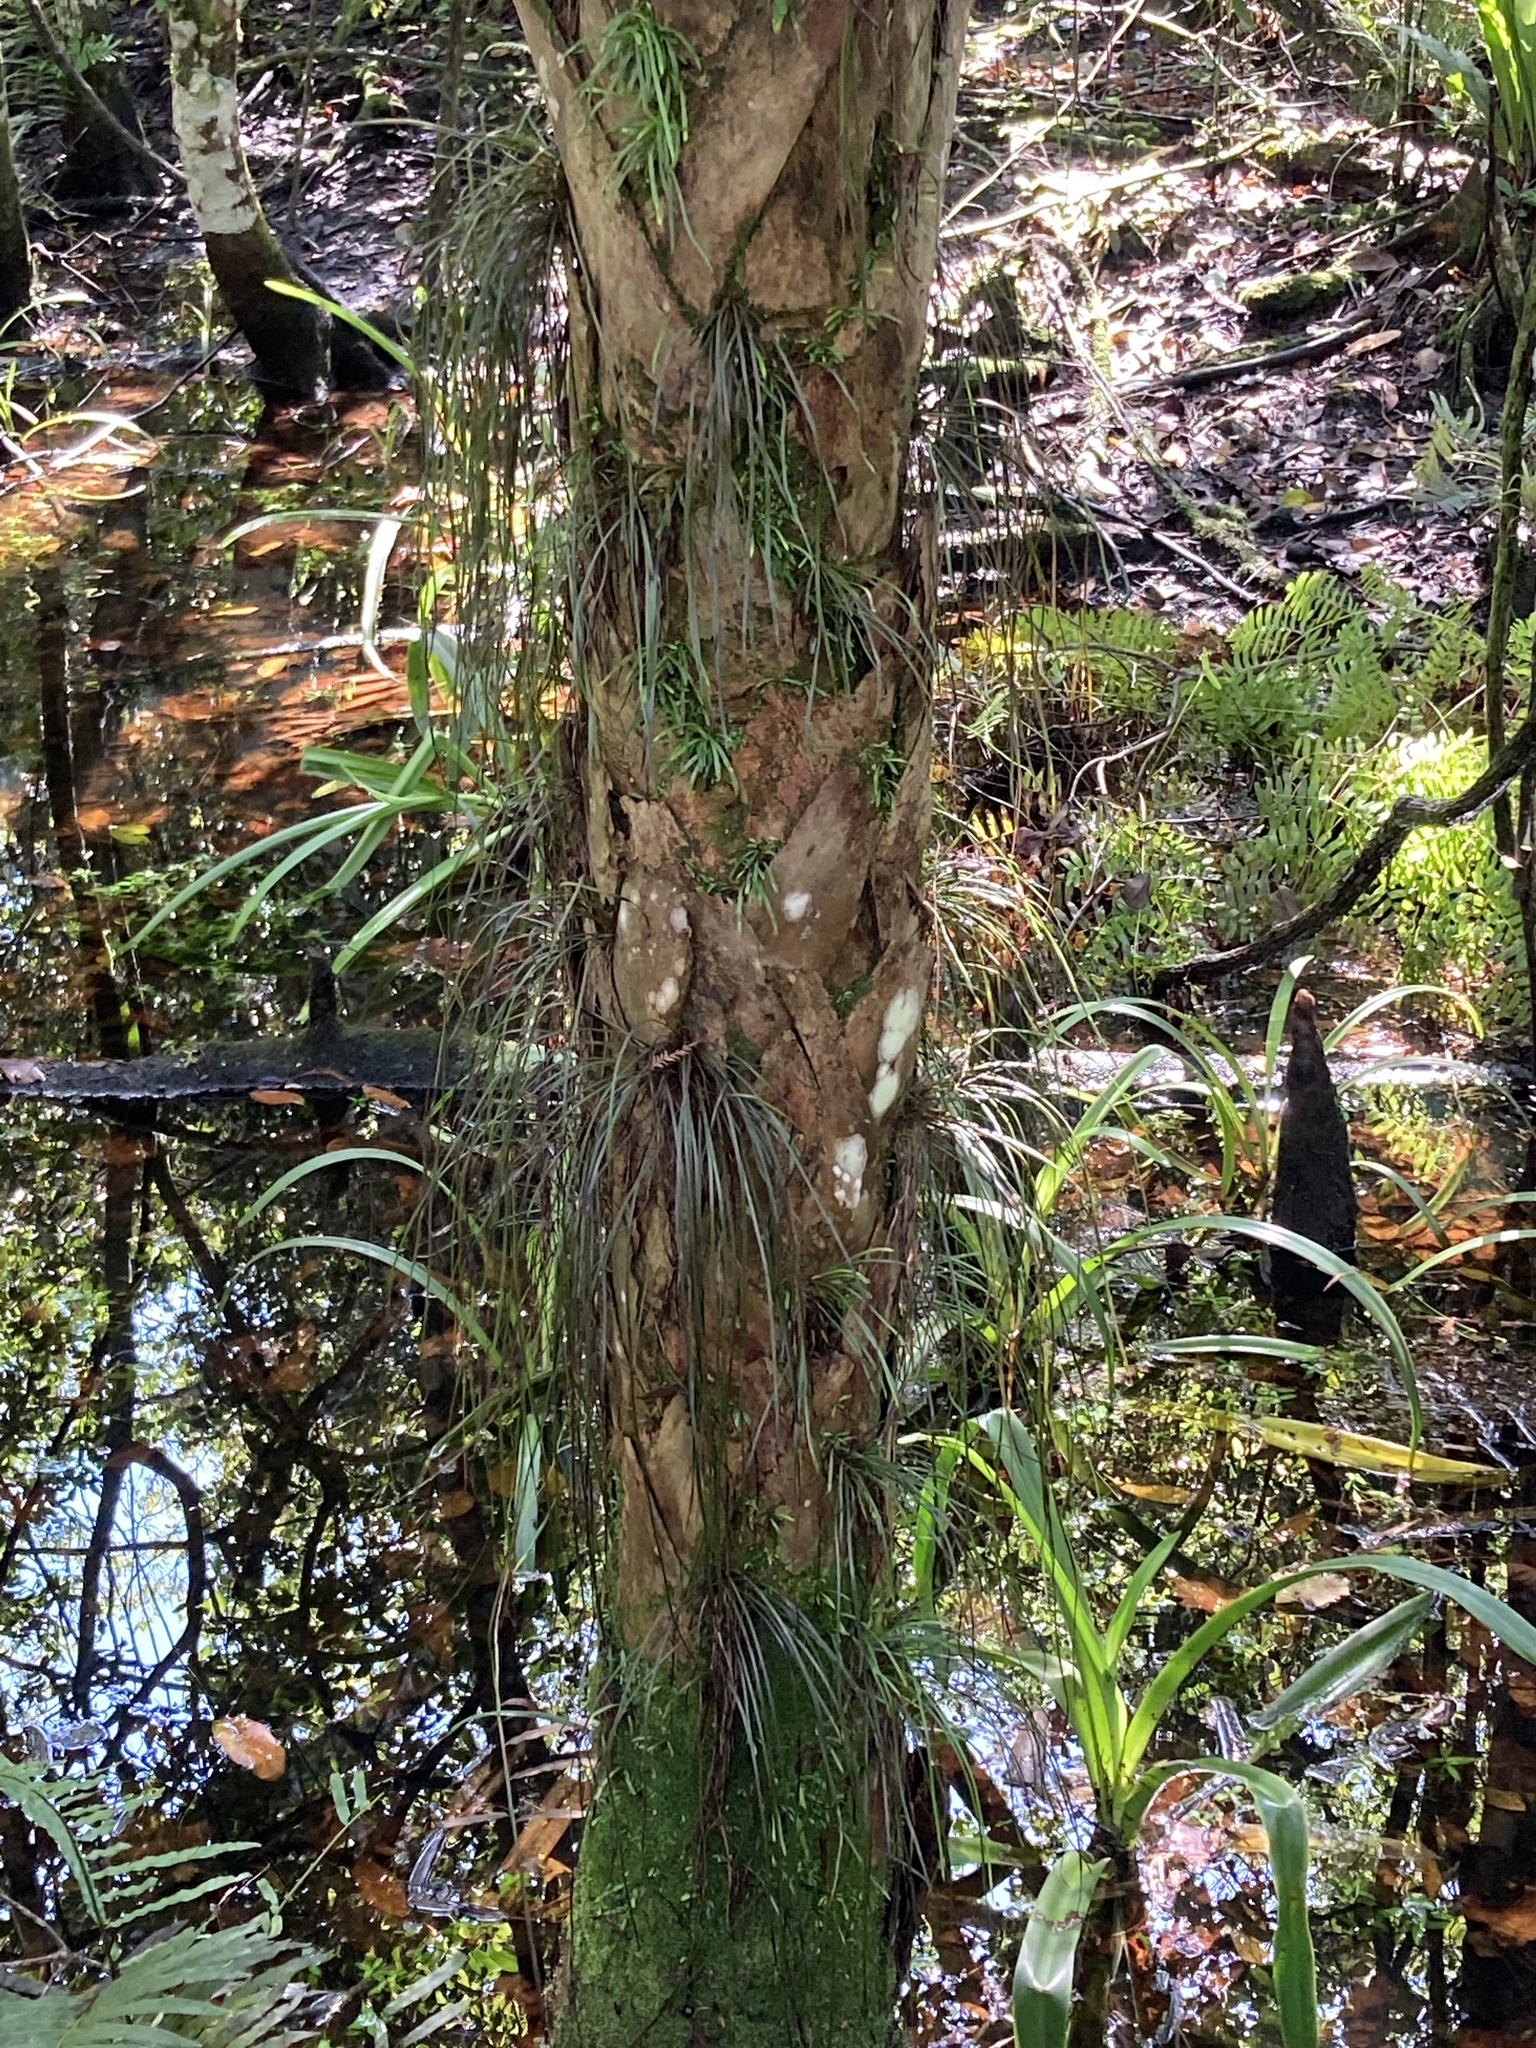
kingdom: Plantae
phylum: Tracheophyta
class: Polypodiopsida
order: Polypodiales
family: Pteridaceae
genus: Vittaria
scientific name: Vittaria lineata
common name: Shoestring fern
